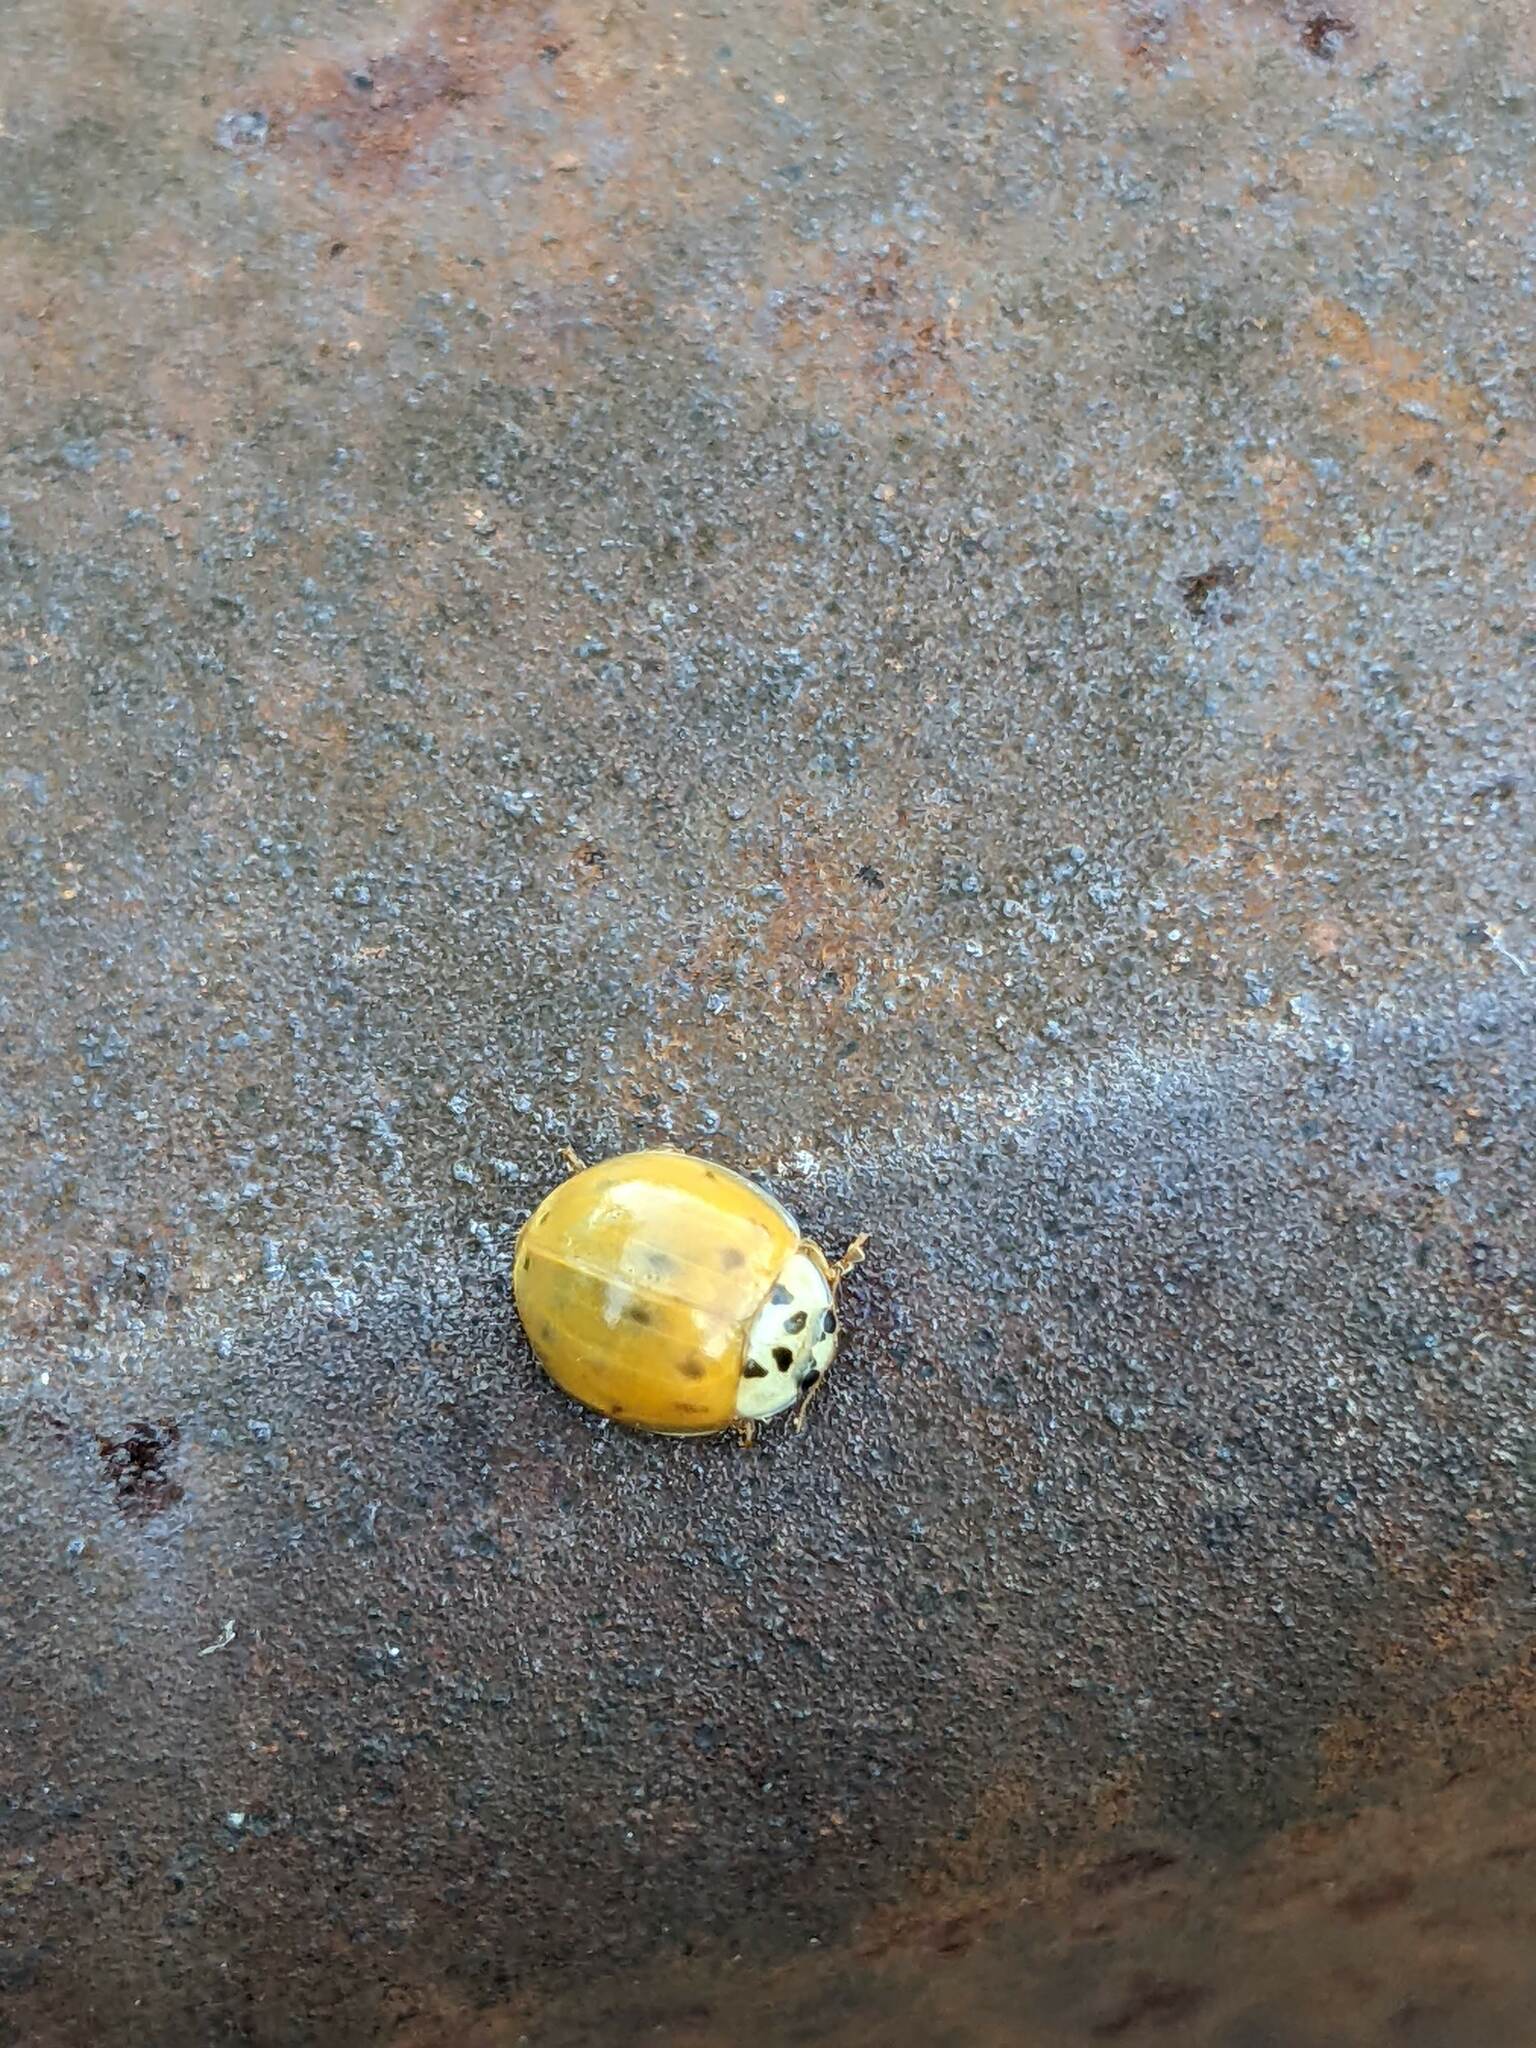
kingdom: Animalia
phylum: Arthropoda
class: Insecta
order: Coleoptera
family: Coccinellidae
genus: Harmonia
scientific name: Harmonia axyridis
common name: Harlequin ladybird
